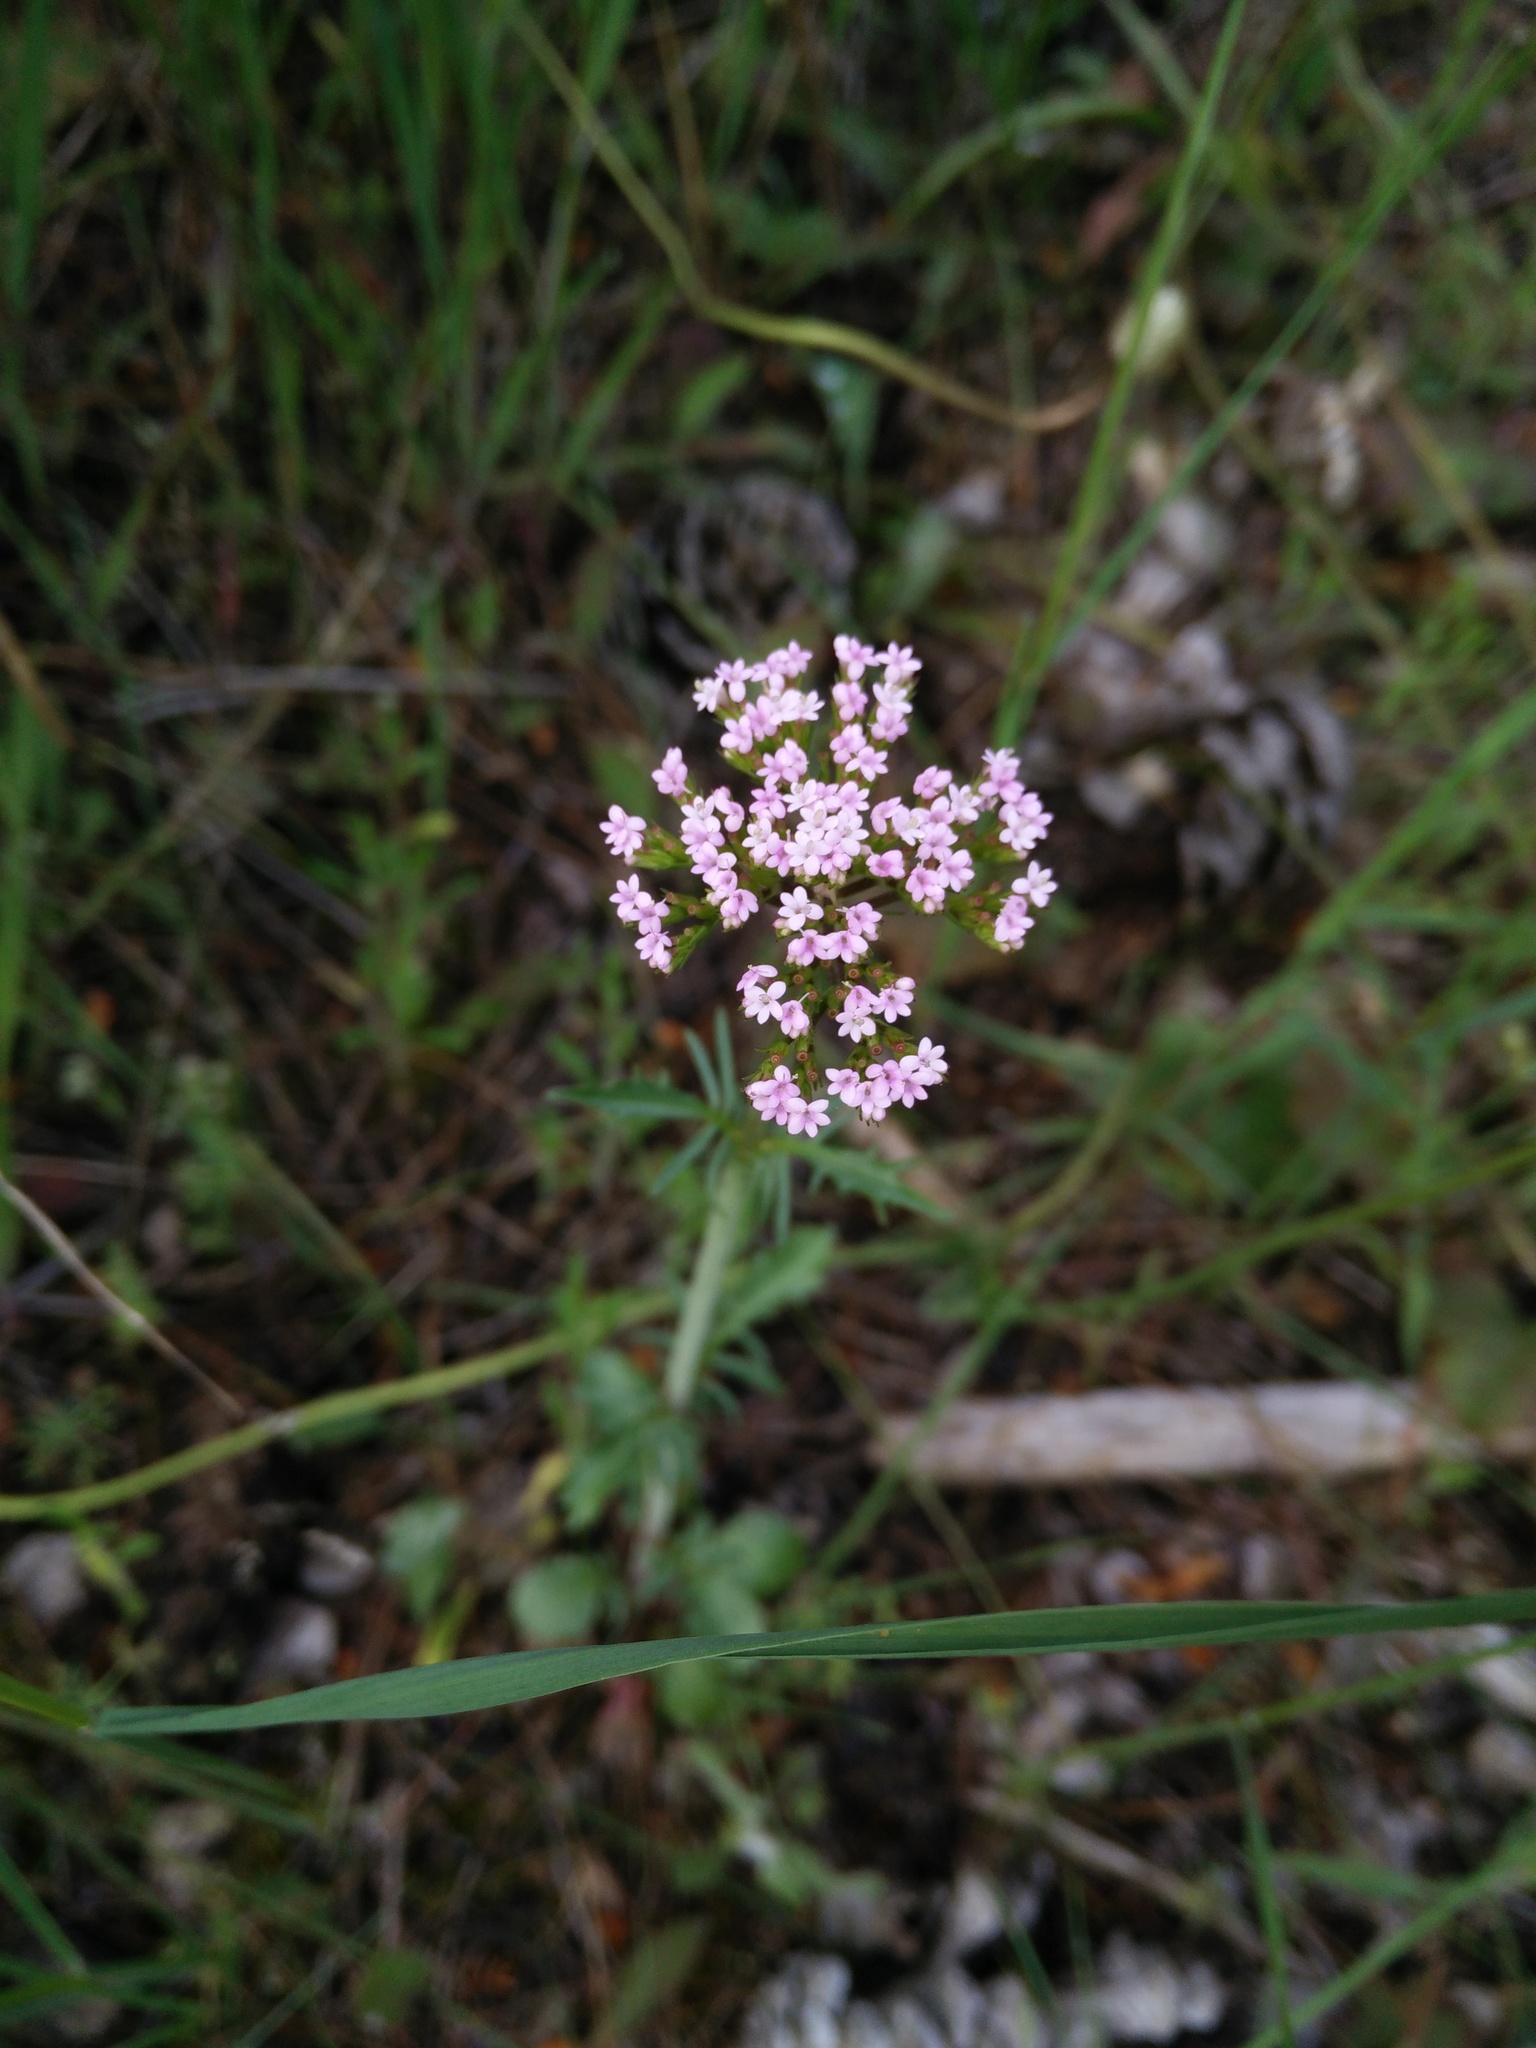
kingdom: Plantae
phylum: Tracheophyta
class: Magnoliopsida
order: Dipsacales
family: Caprifoliaceae
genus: Centranthus
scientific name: Centranthus calcitrapae
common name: Annual valerian
